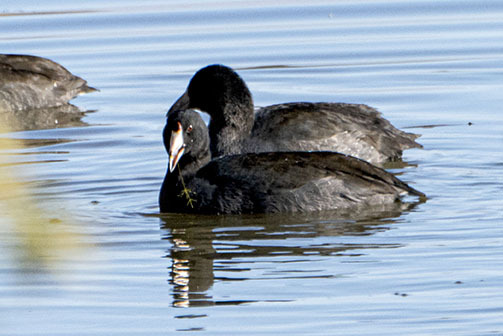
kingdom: Animalia
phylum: Chordata
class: Aves
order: Gruiformes
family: Rallidae
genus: Fulica
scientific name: Fulica americana
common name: American coot
